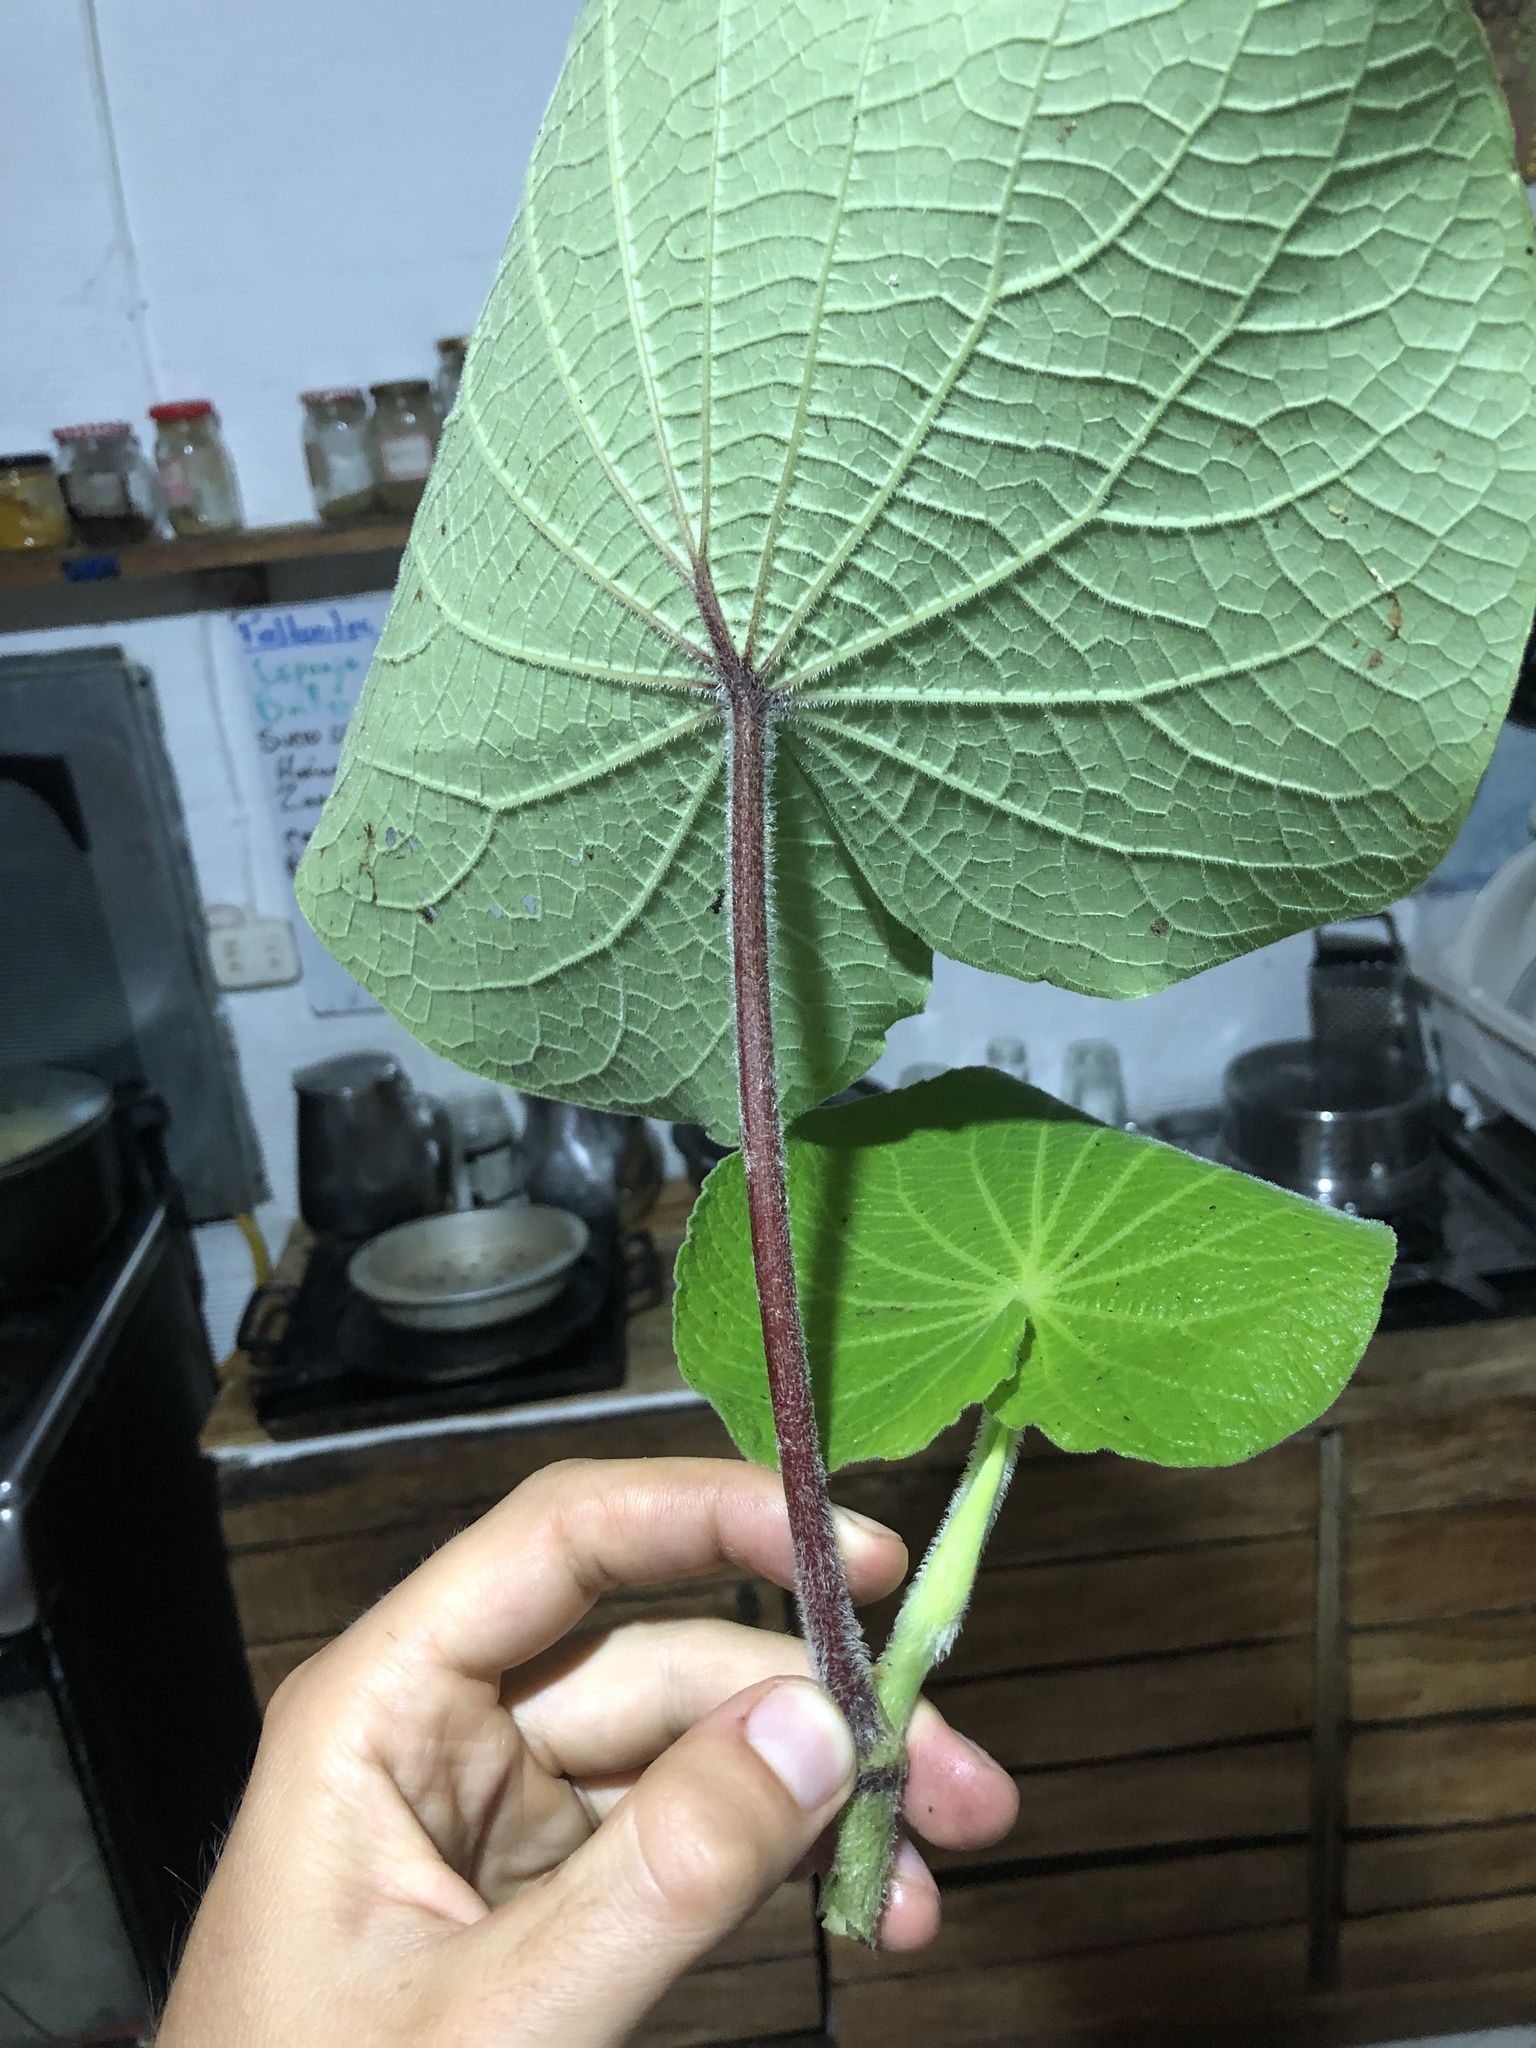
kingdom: Plantae
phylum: Tracheophyta
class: Magnoliopsida
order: Piperales
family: Piperaceae
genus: Piper
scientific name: Piper umbellatum
